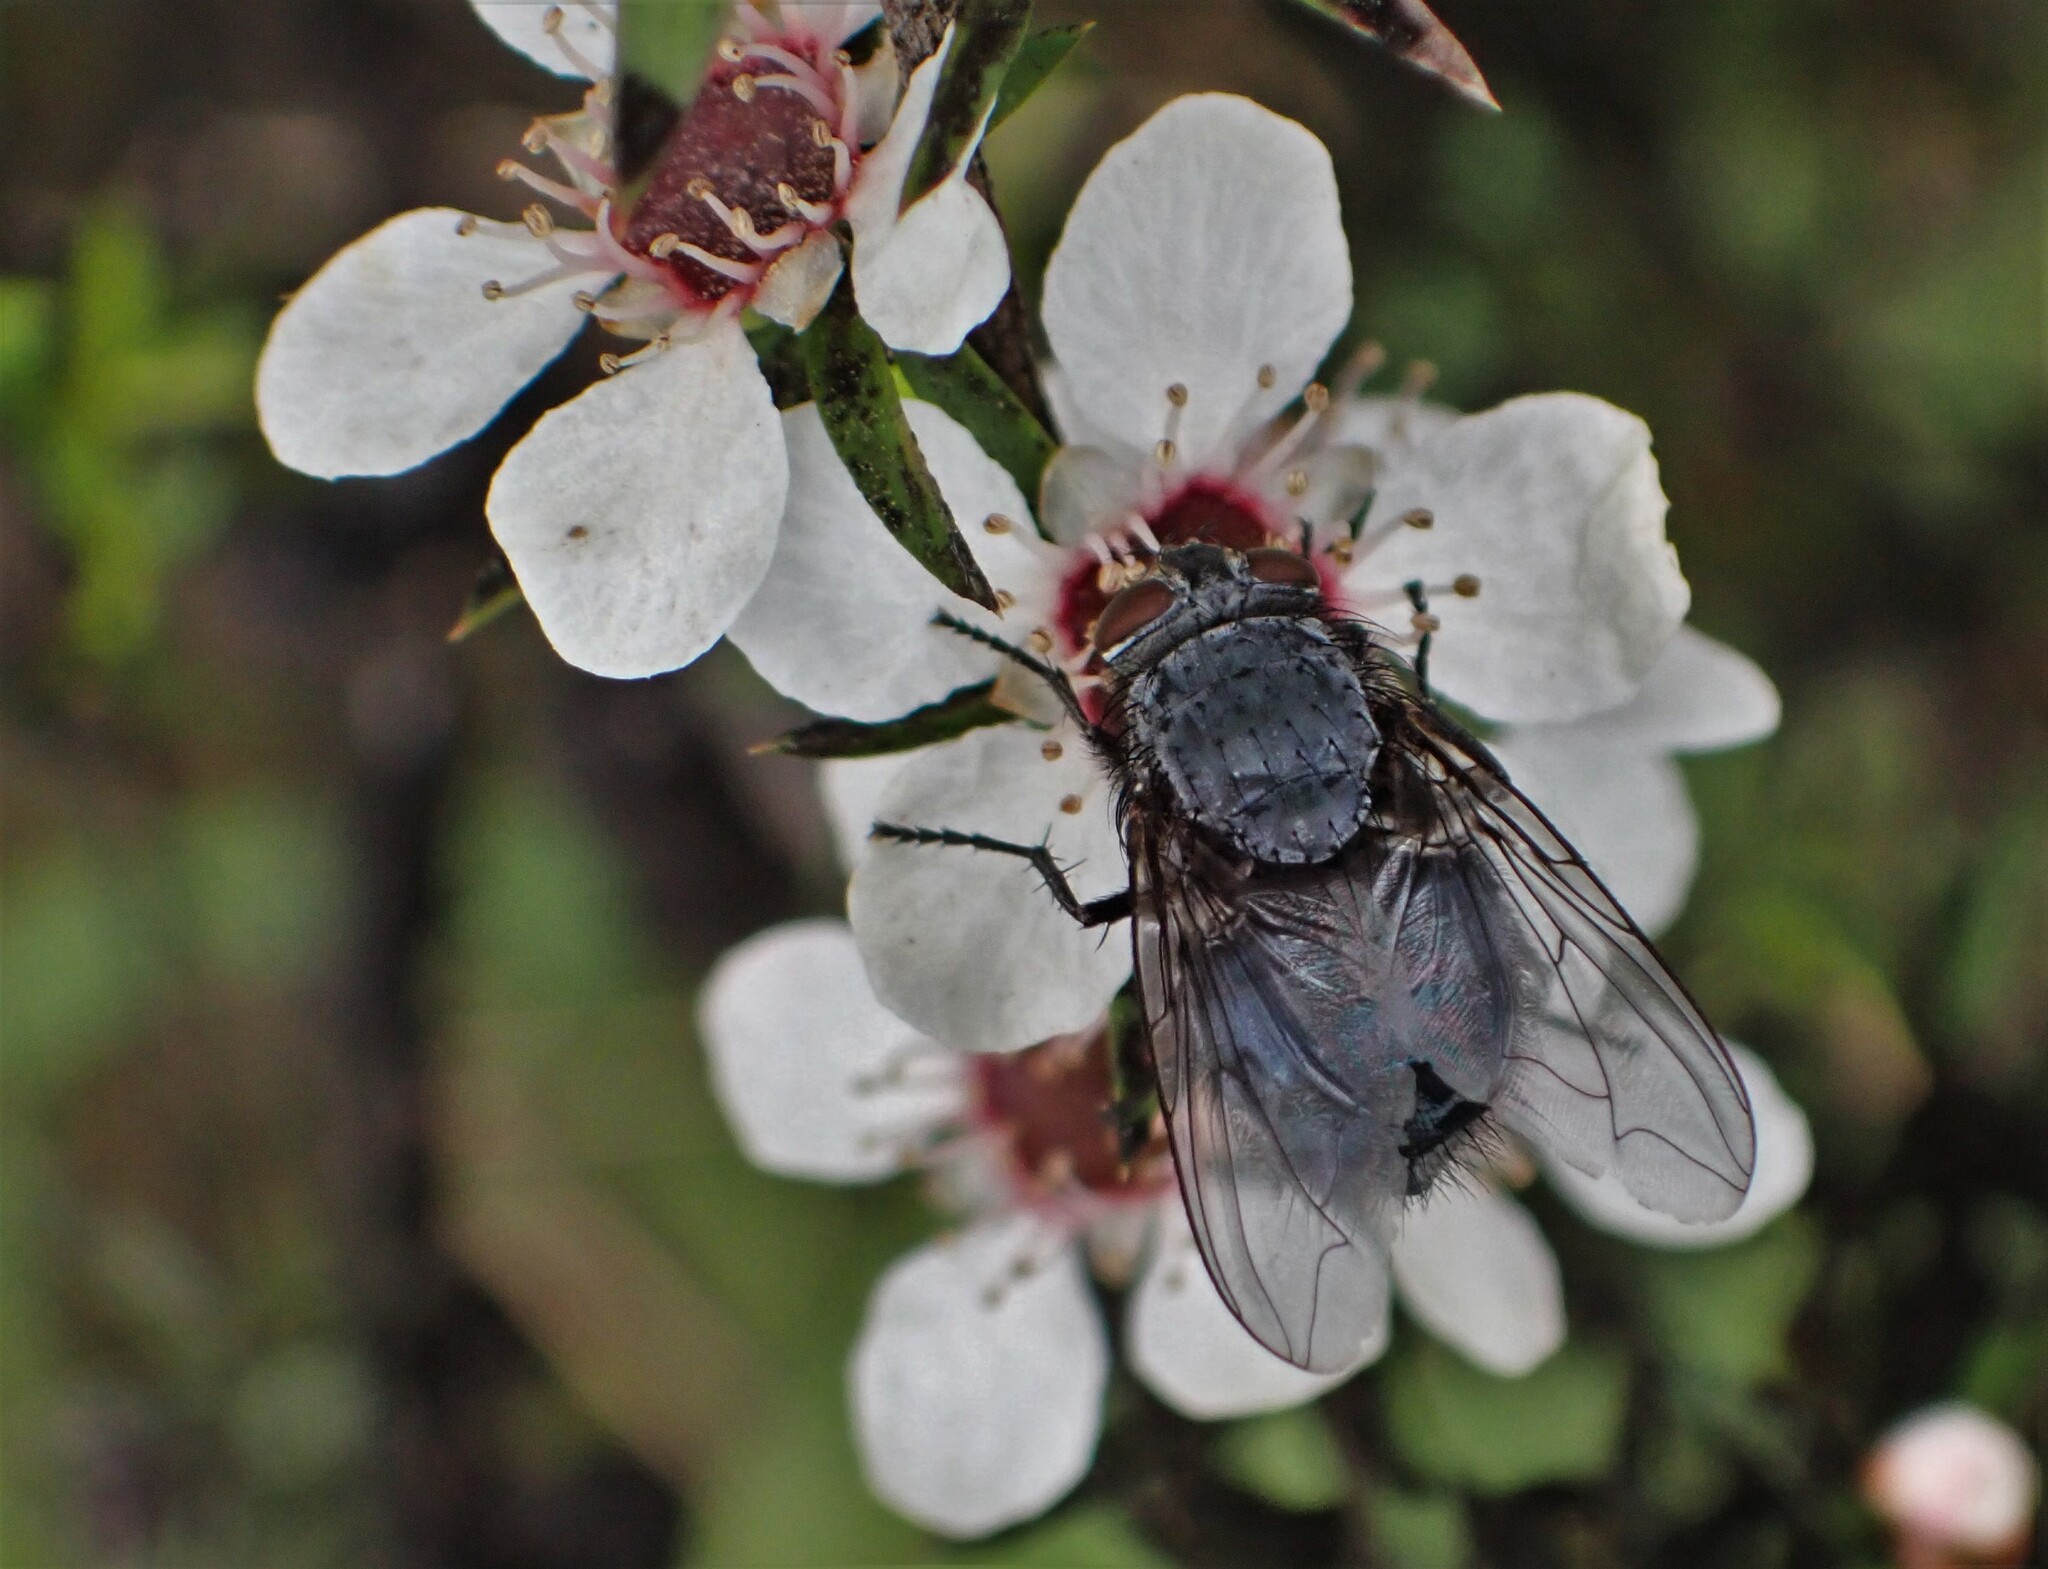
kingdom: Animalia
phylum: Arthropoda
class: Insecta
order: Diptera
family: Calliphoridae
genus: Calliphora
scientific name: Calliphora vicina
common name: Common blow flie
